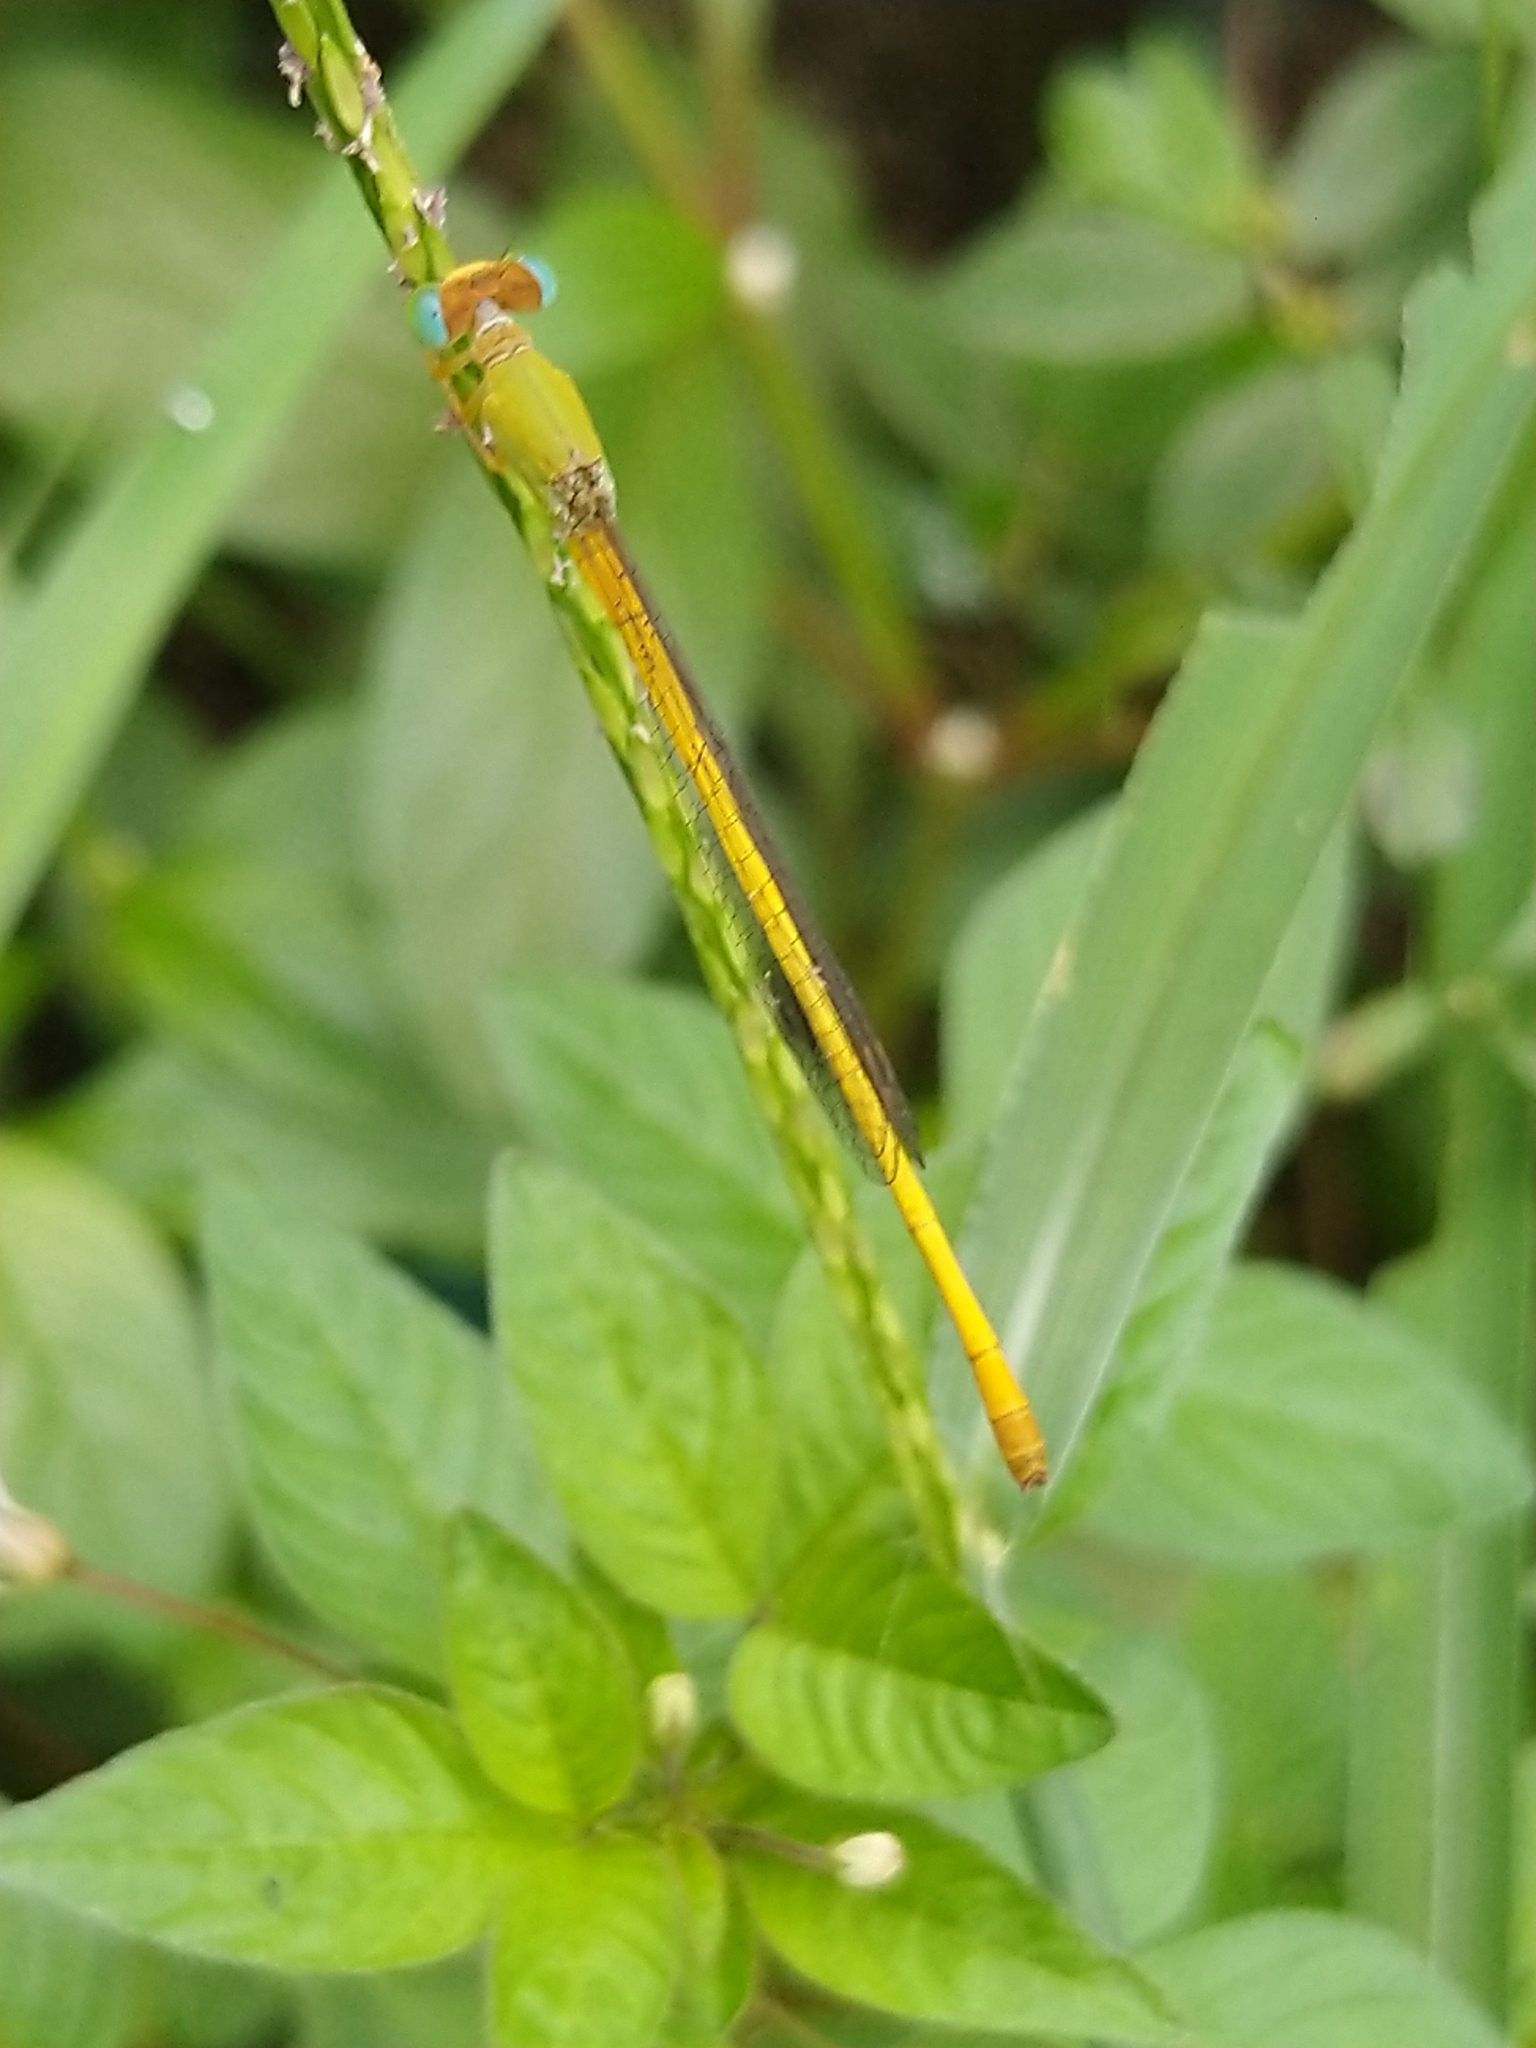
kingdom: Animalia
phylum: Arthropoda
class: Insecta
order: Odonata
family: Coenagrionidae
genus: Ceriagrion
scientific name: Ceriagrion coromandelianum
